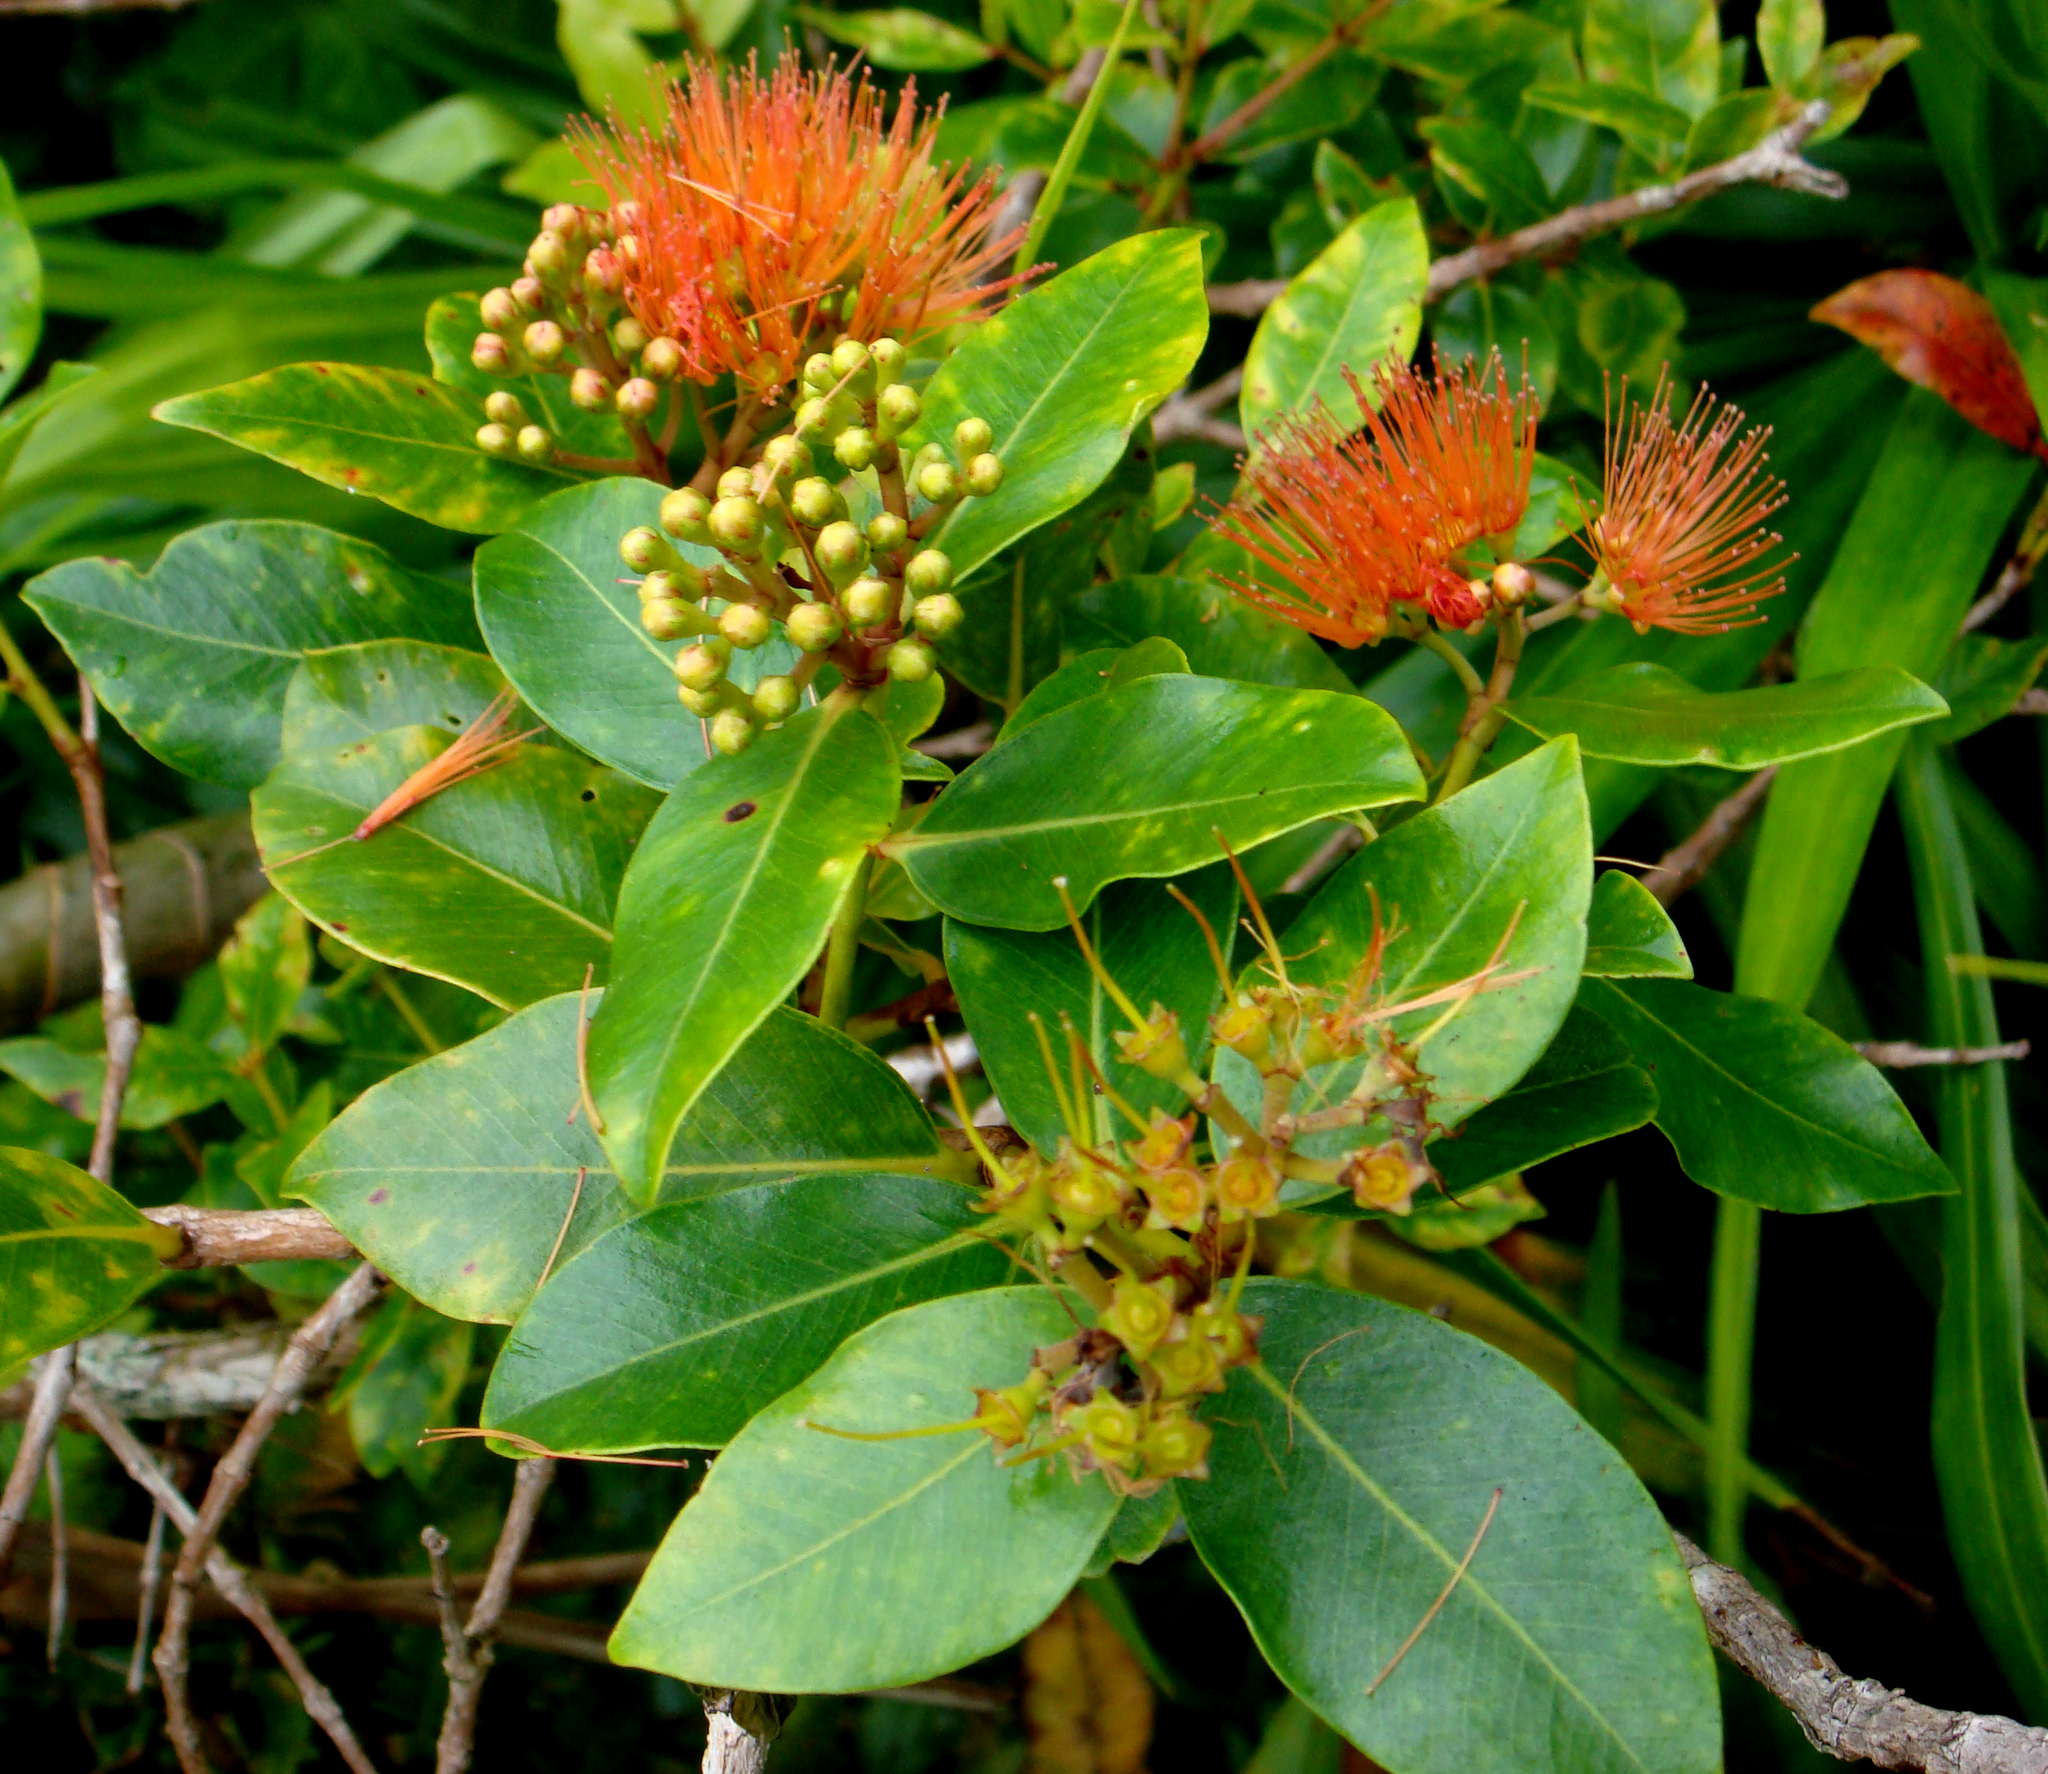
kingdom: Plantae
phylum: Tracheophyta
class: Magnoliopsida
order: Myrtales
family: Myrtaceae
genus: Metrosideros
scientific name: Metrosideros collina
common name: Vunga
